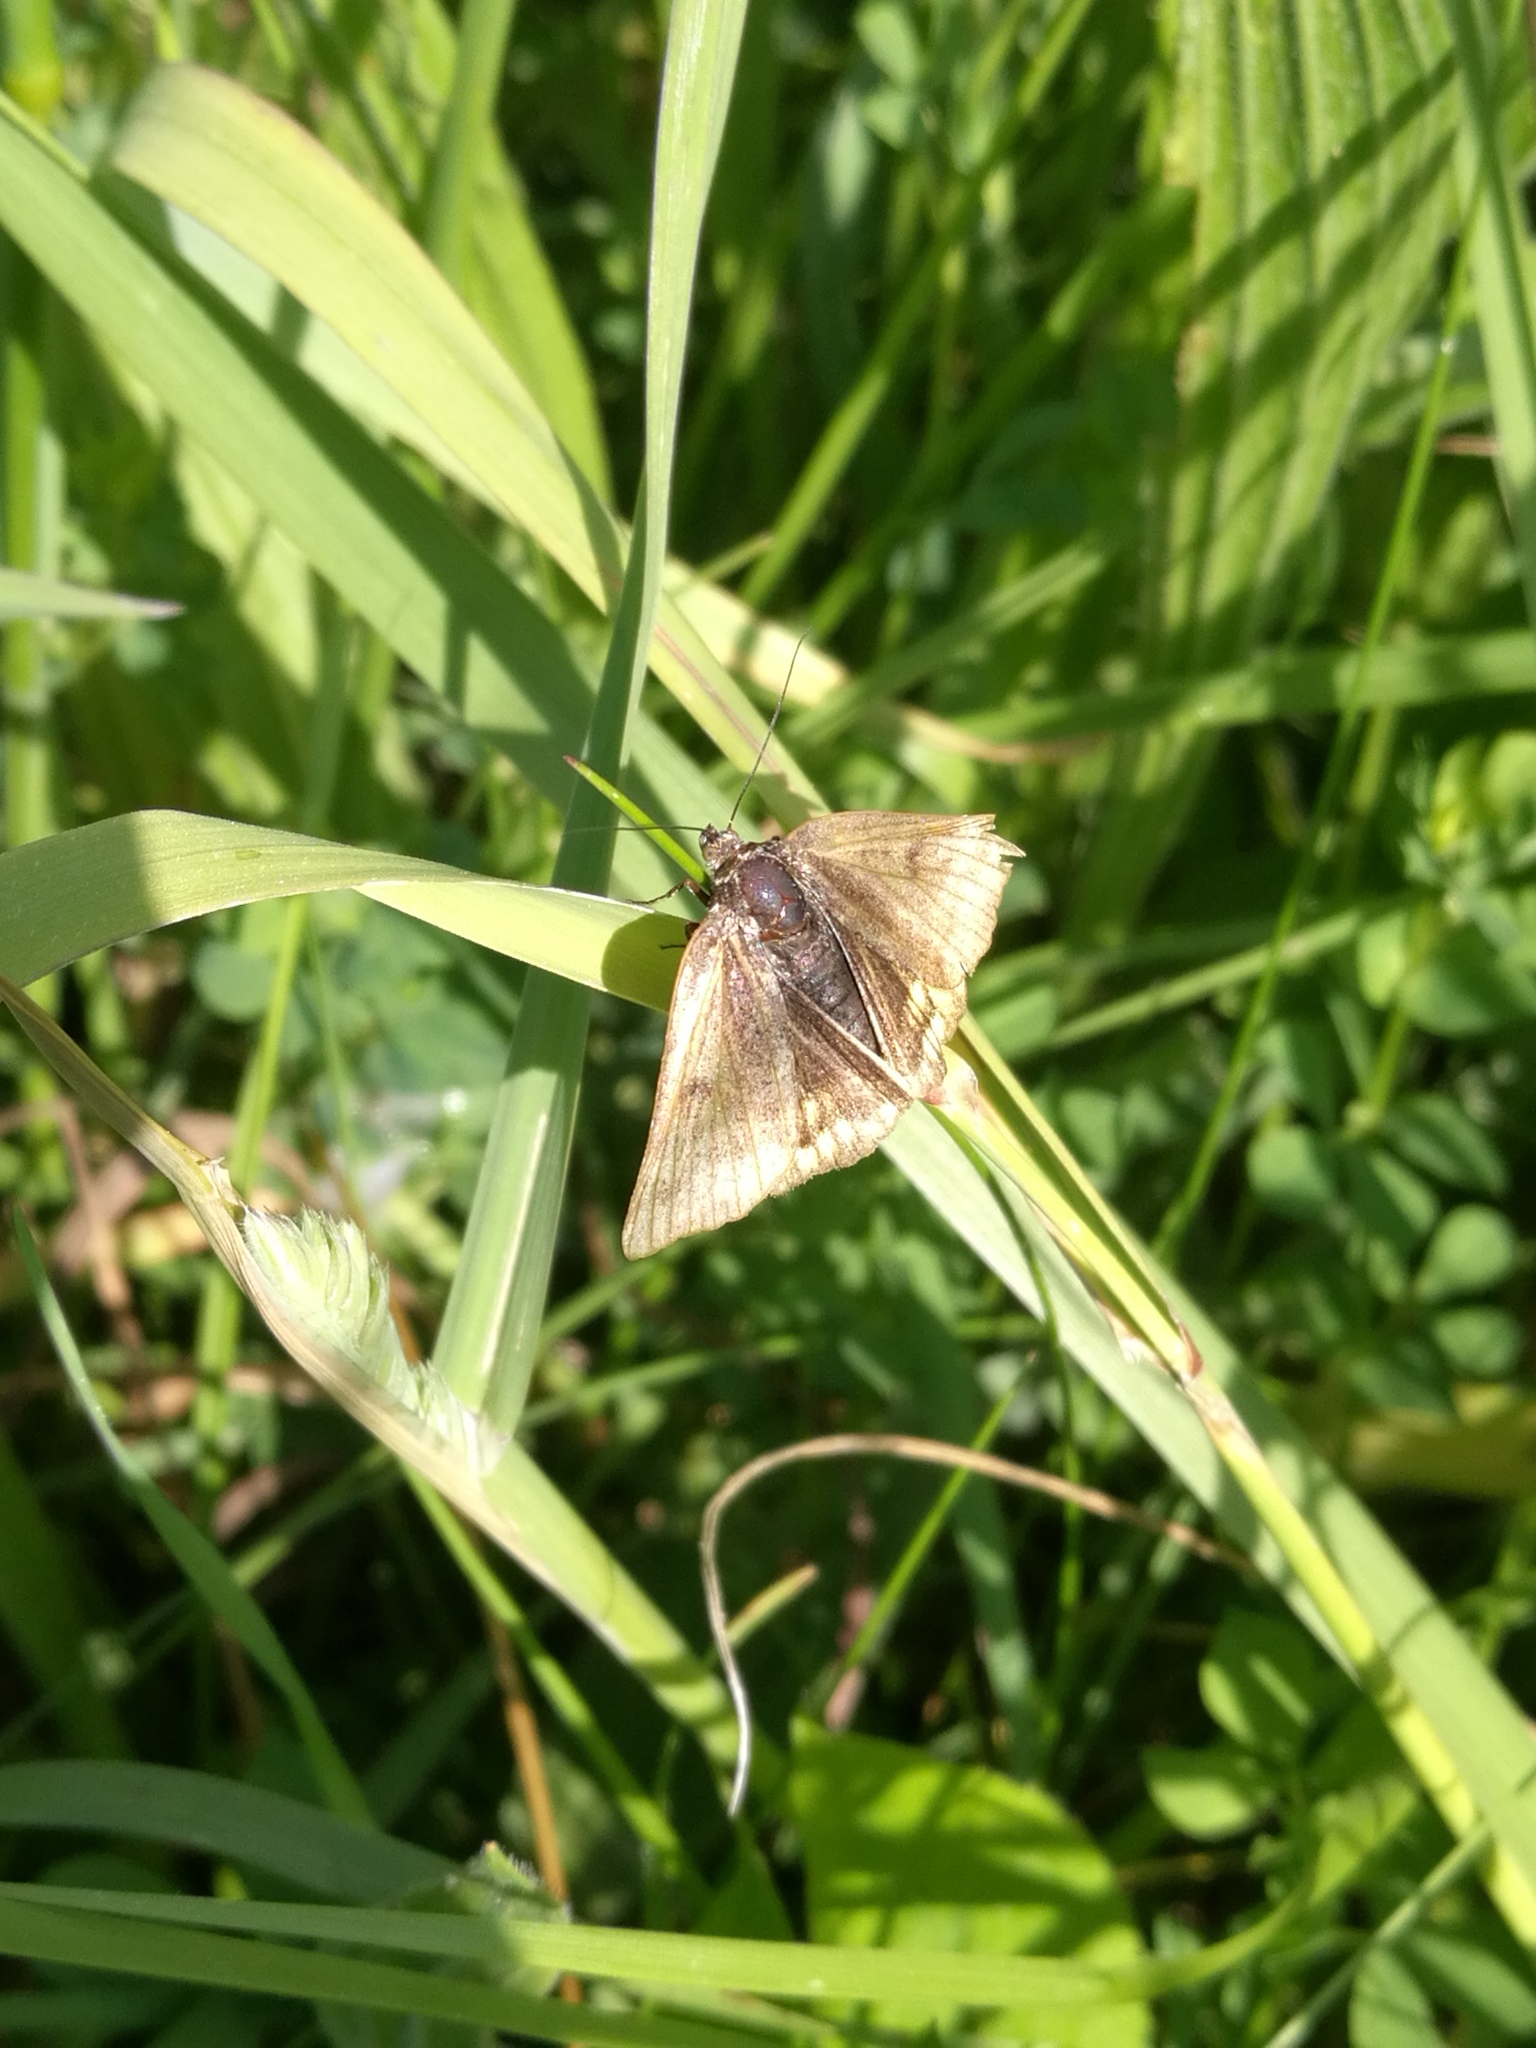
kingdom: Animalia
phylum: Arthropoda
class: Insecta
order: Lepidoptera
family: Erebidae
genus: Euclidia
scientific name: Euclidia glyphica
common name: Burnet companion
